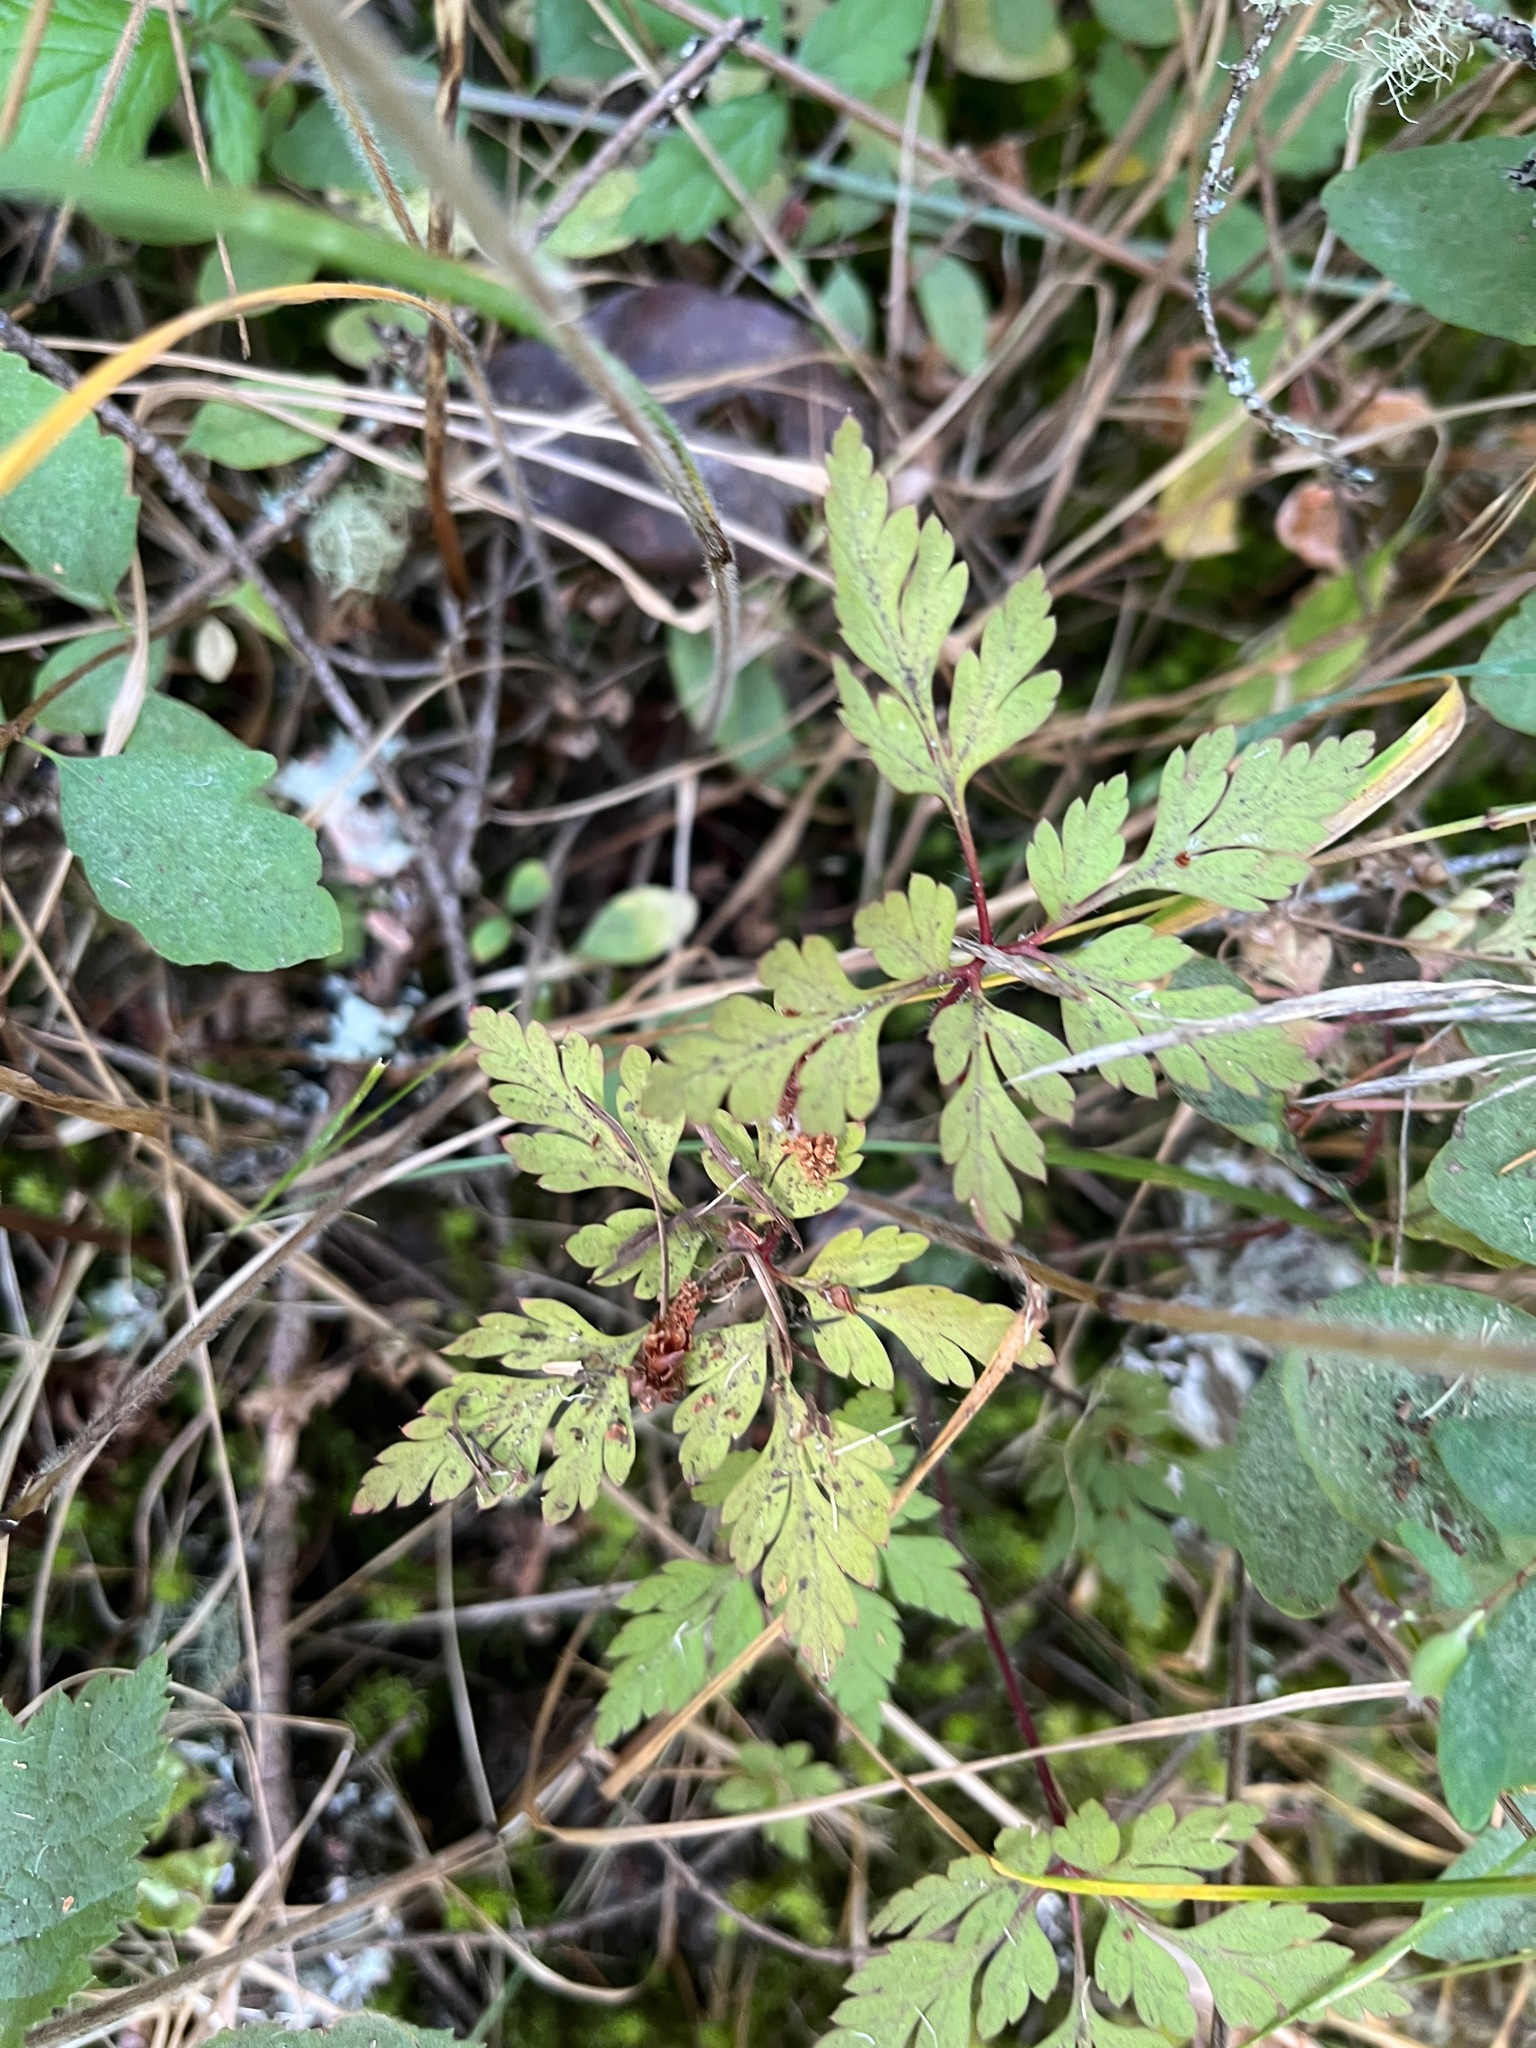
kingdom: Plantae
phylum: Tracheophyta
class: Magnoliopsida
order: Geraniales
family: Geraniaceae
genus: Geranium
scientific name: Geranium robertianum
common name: Herb-robert
